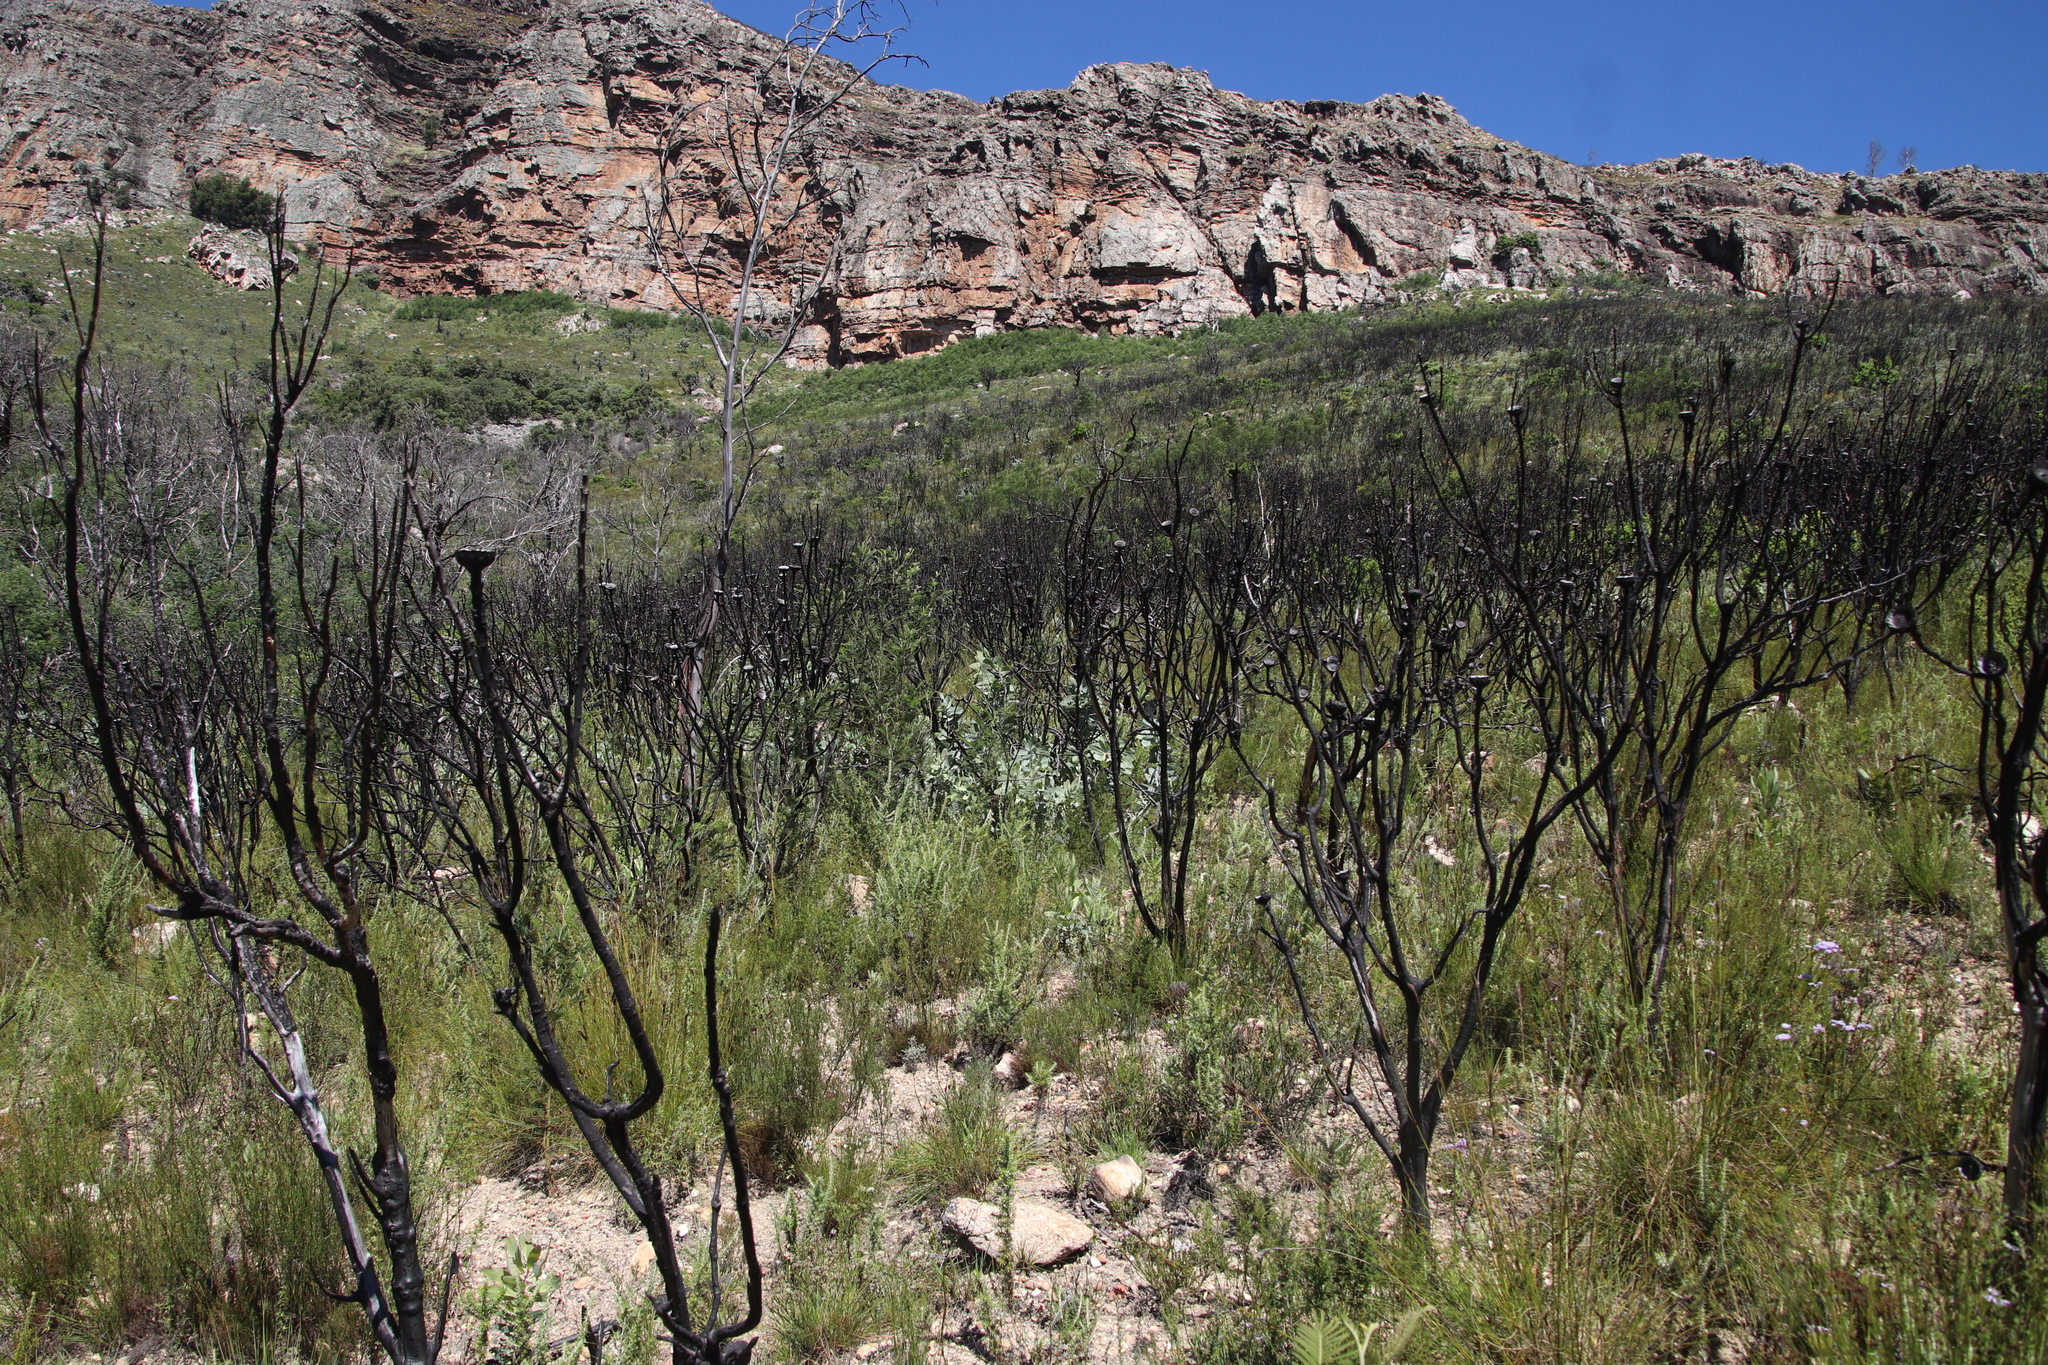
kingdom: Plantae
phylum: Tracheophyta
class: Magnoliopsida
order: Proteales
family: Proteaceae
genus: Protea
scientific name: Protea nitida
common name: Tree protea
